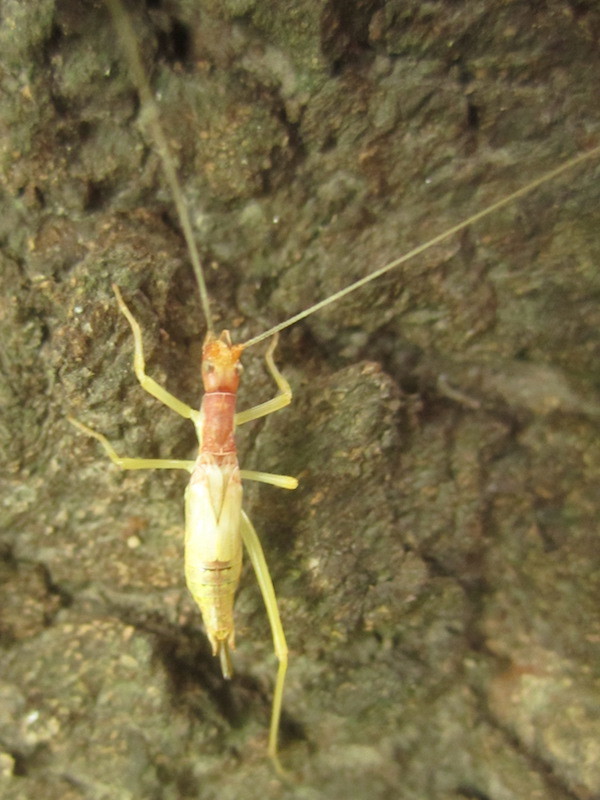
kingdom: Animalia
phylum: Arthropoda
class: Insecta
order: Orthoptera
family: Gryllidae
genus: Neoxabea
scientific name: Neoxabea bipunctata
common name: Two-spotted tree cricket
